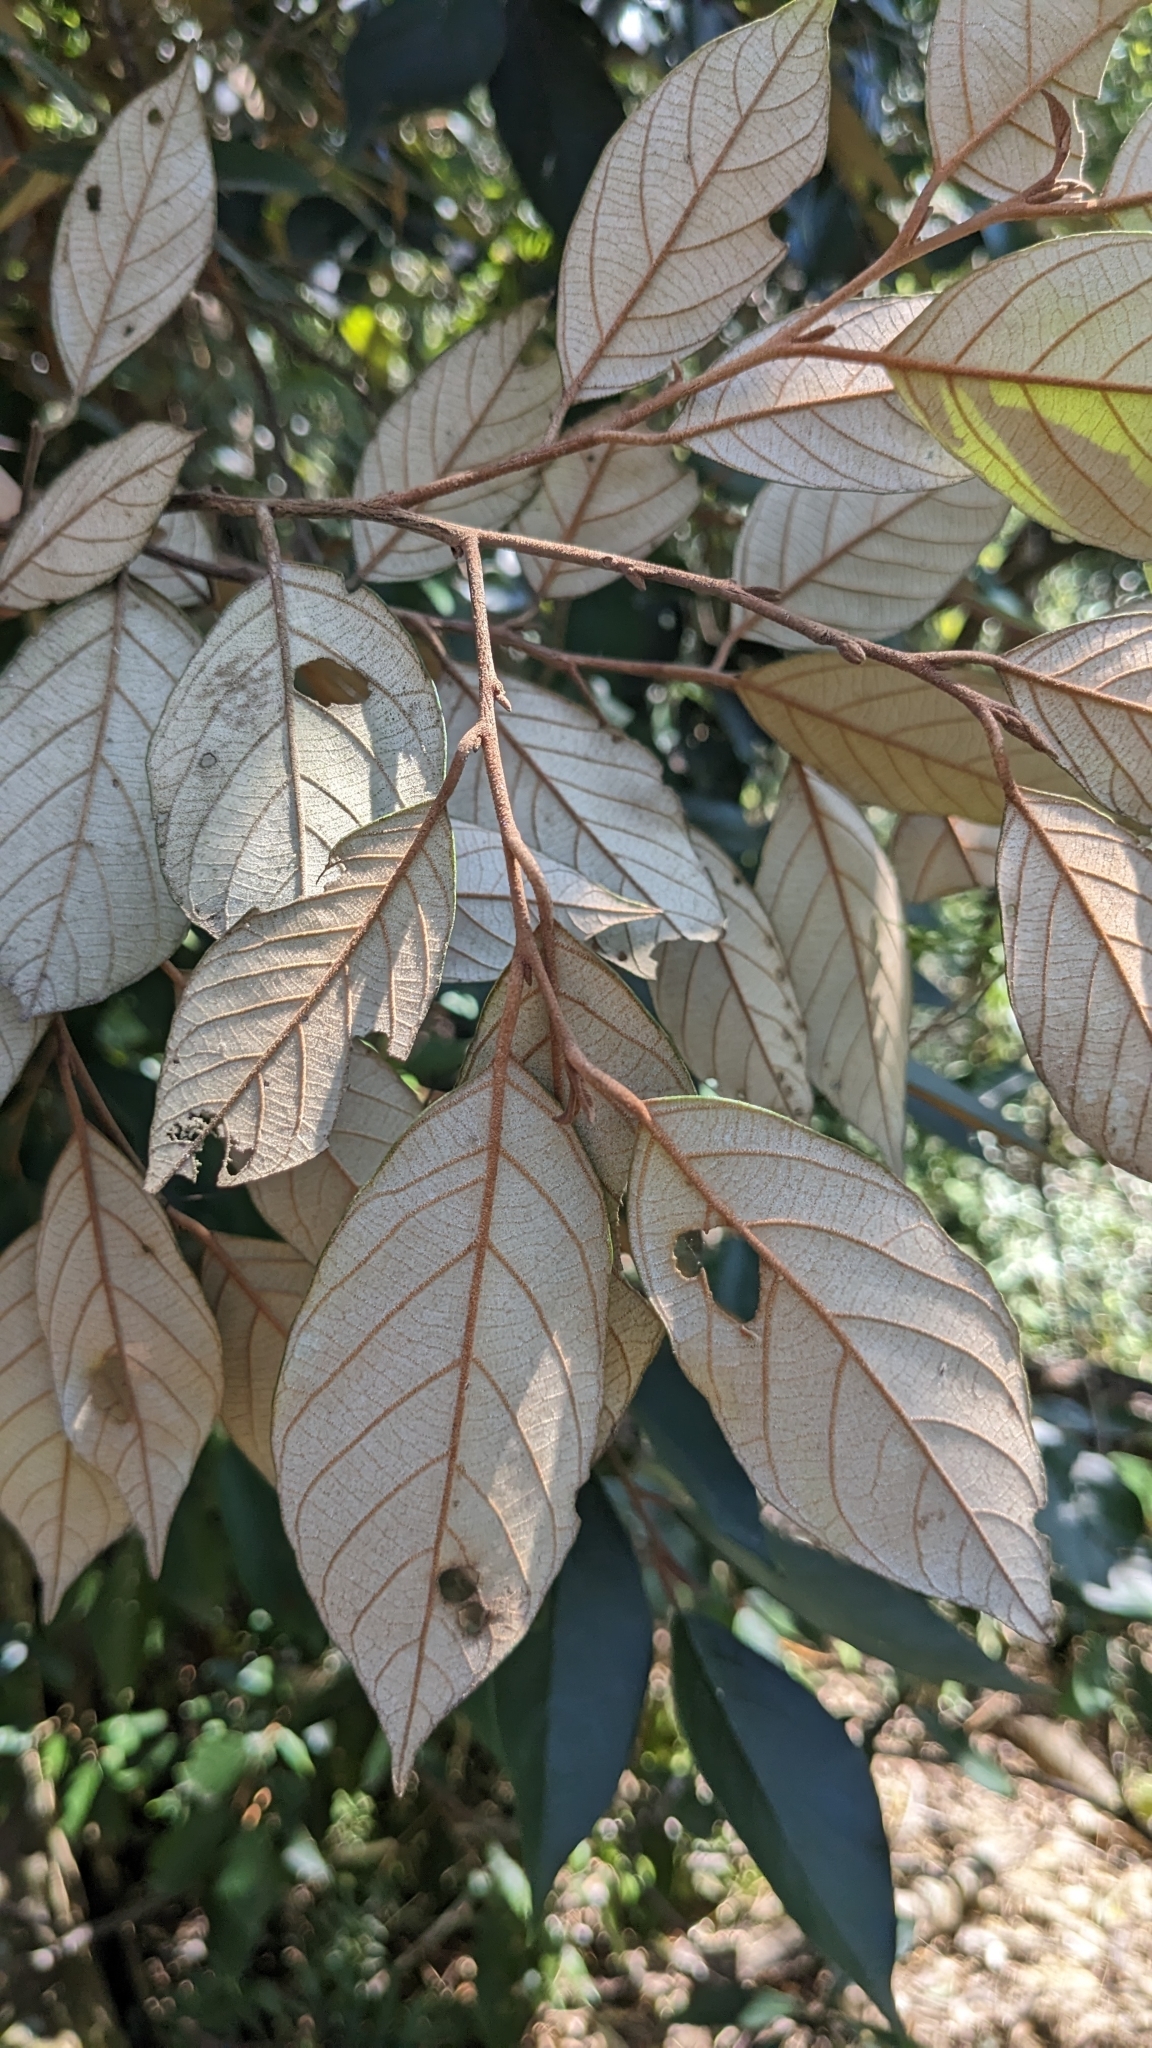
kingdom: Plantae
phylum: Tracheophyta
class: Magnoliopsida
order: Ericales
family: Styracaceae
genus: Styrax
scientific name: Styrax suberifolius
